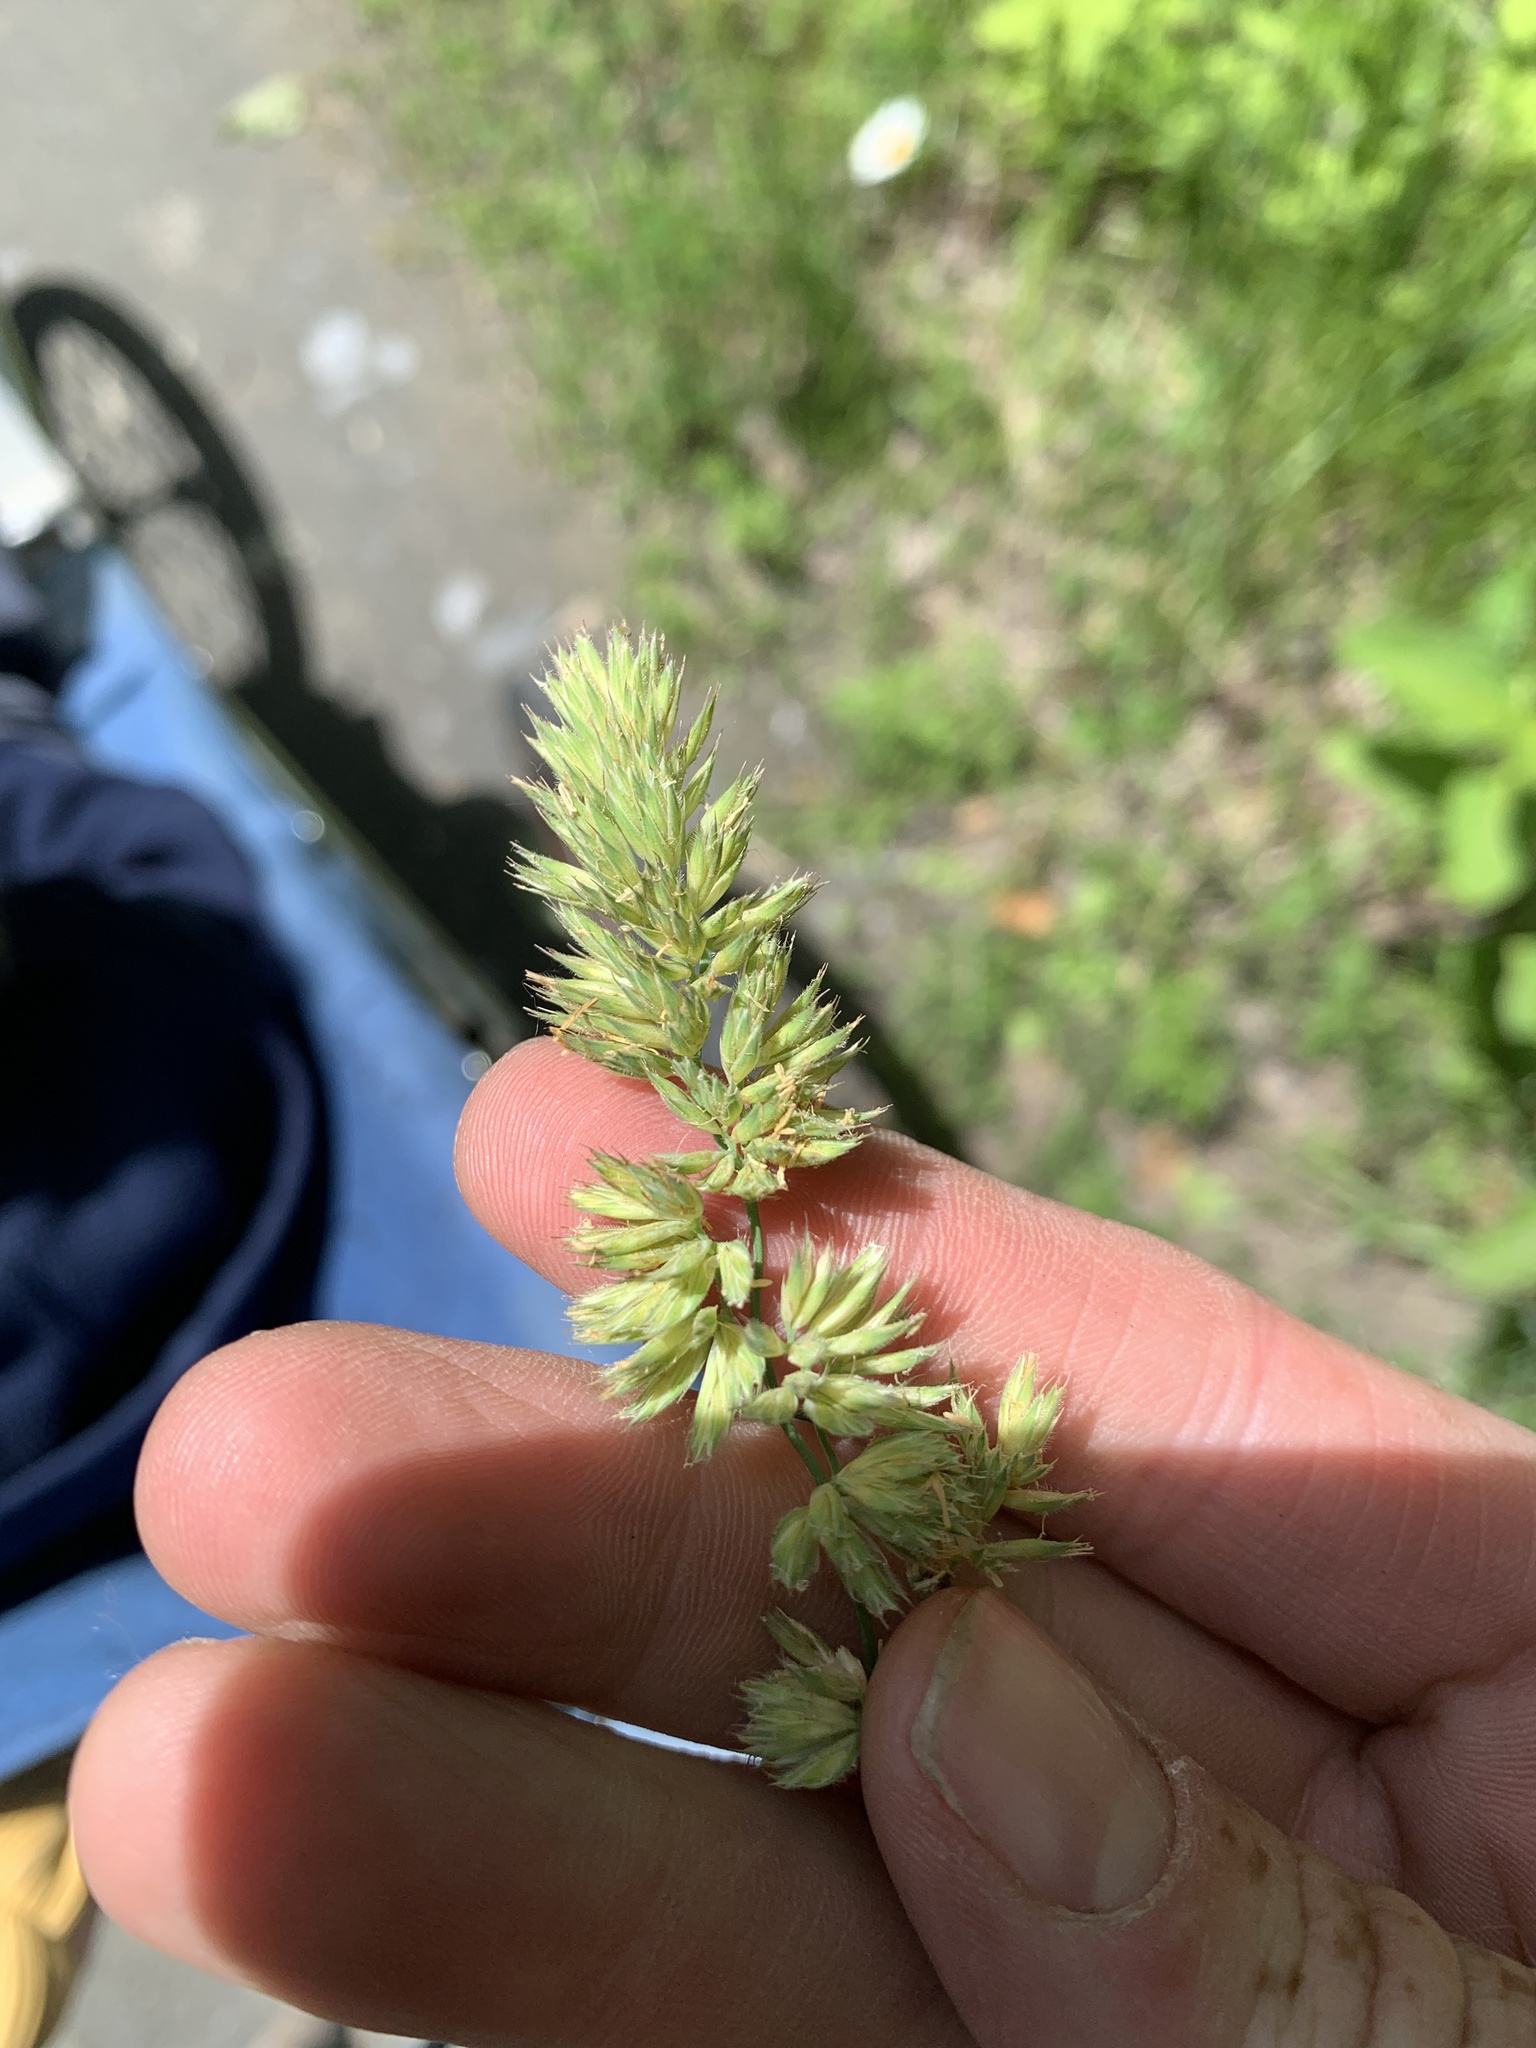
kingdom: Plantae
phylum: Tracheophyta
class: Liliopsida
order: Poales
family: Poaceae
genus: Dactylis
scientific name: Dactylis glomerata
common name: Orchardgrass
